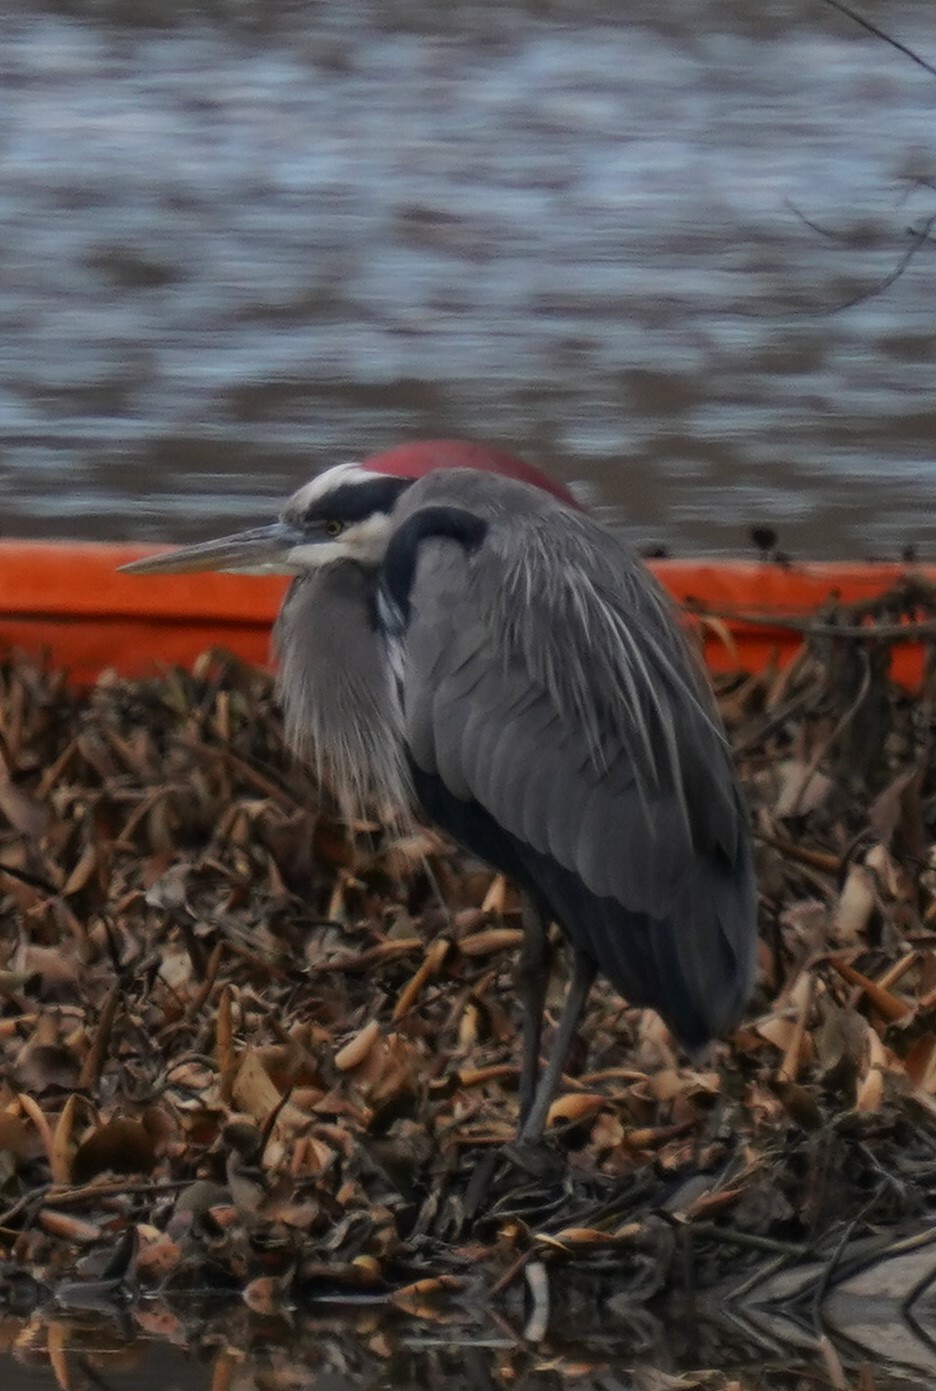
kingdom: Animalia
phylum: Chordata
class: Aves
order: Pelecaniformes
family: Ardeidae
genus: Ardea
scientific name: Ardea herodias
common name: Great blue heron
